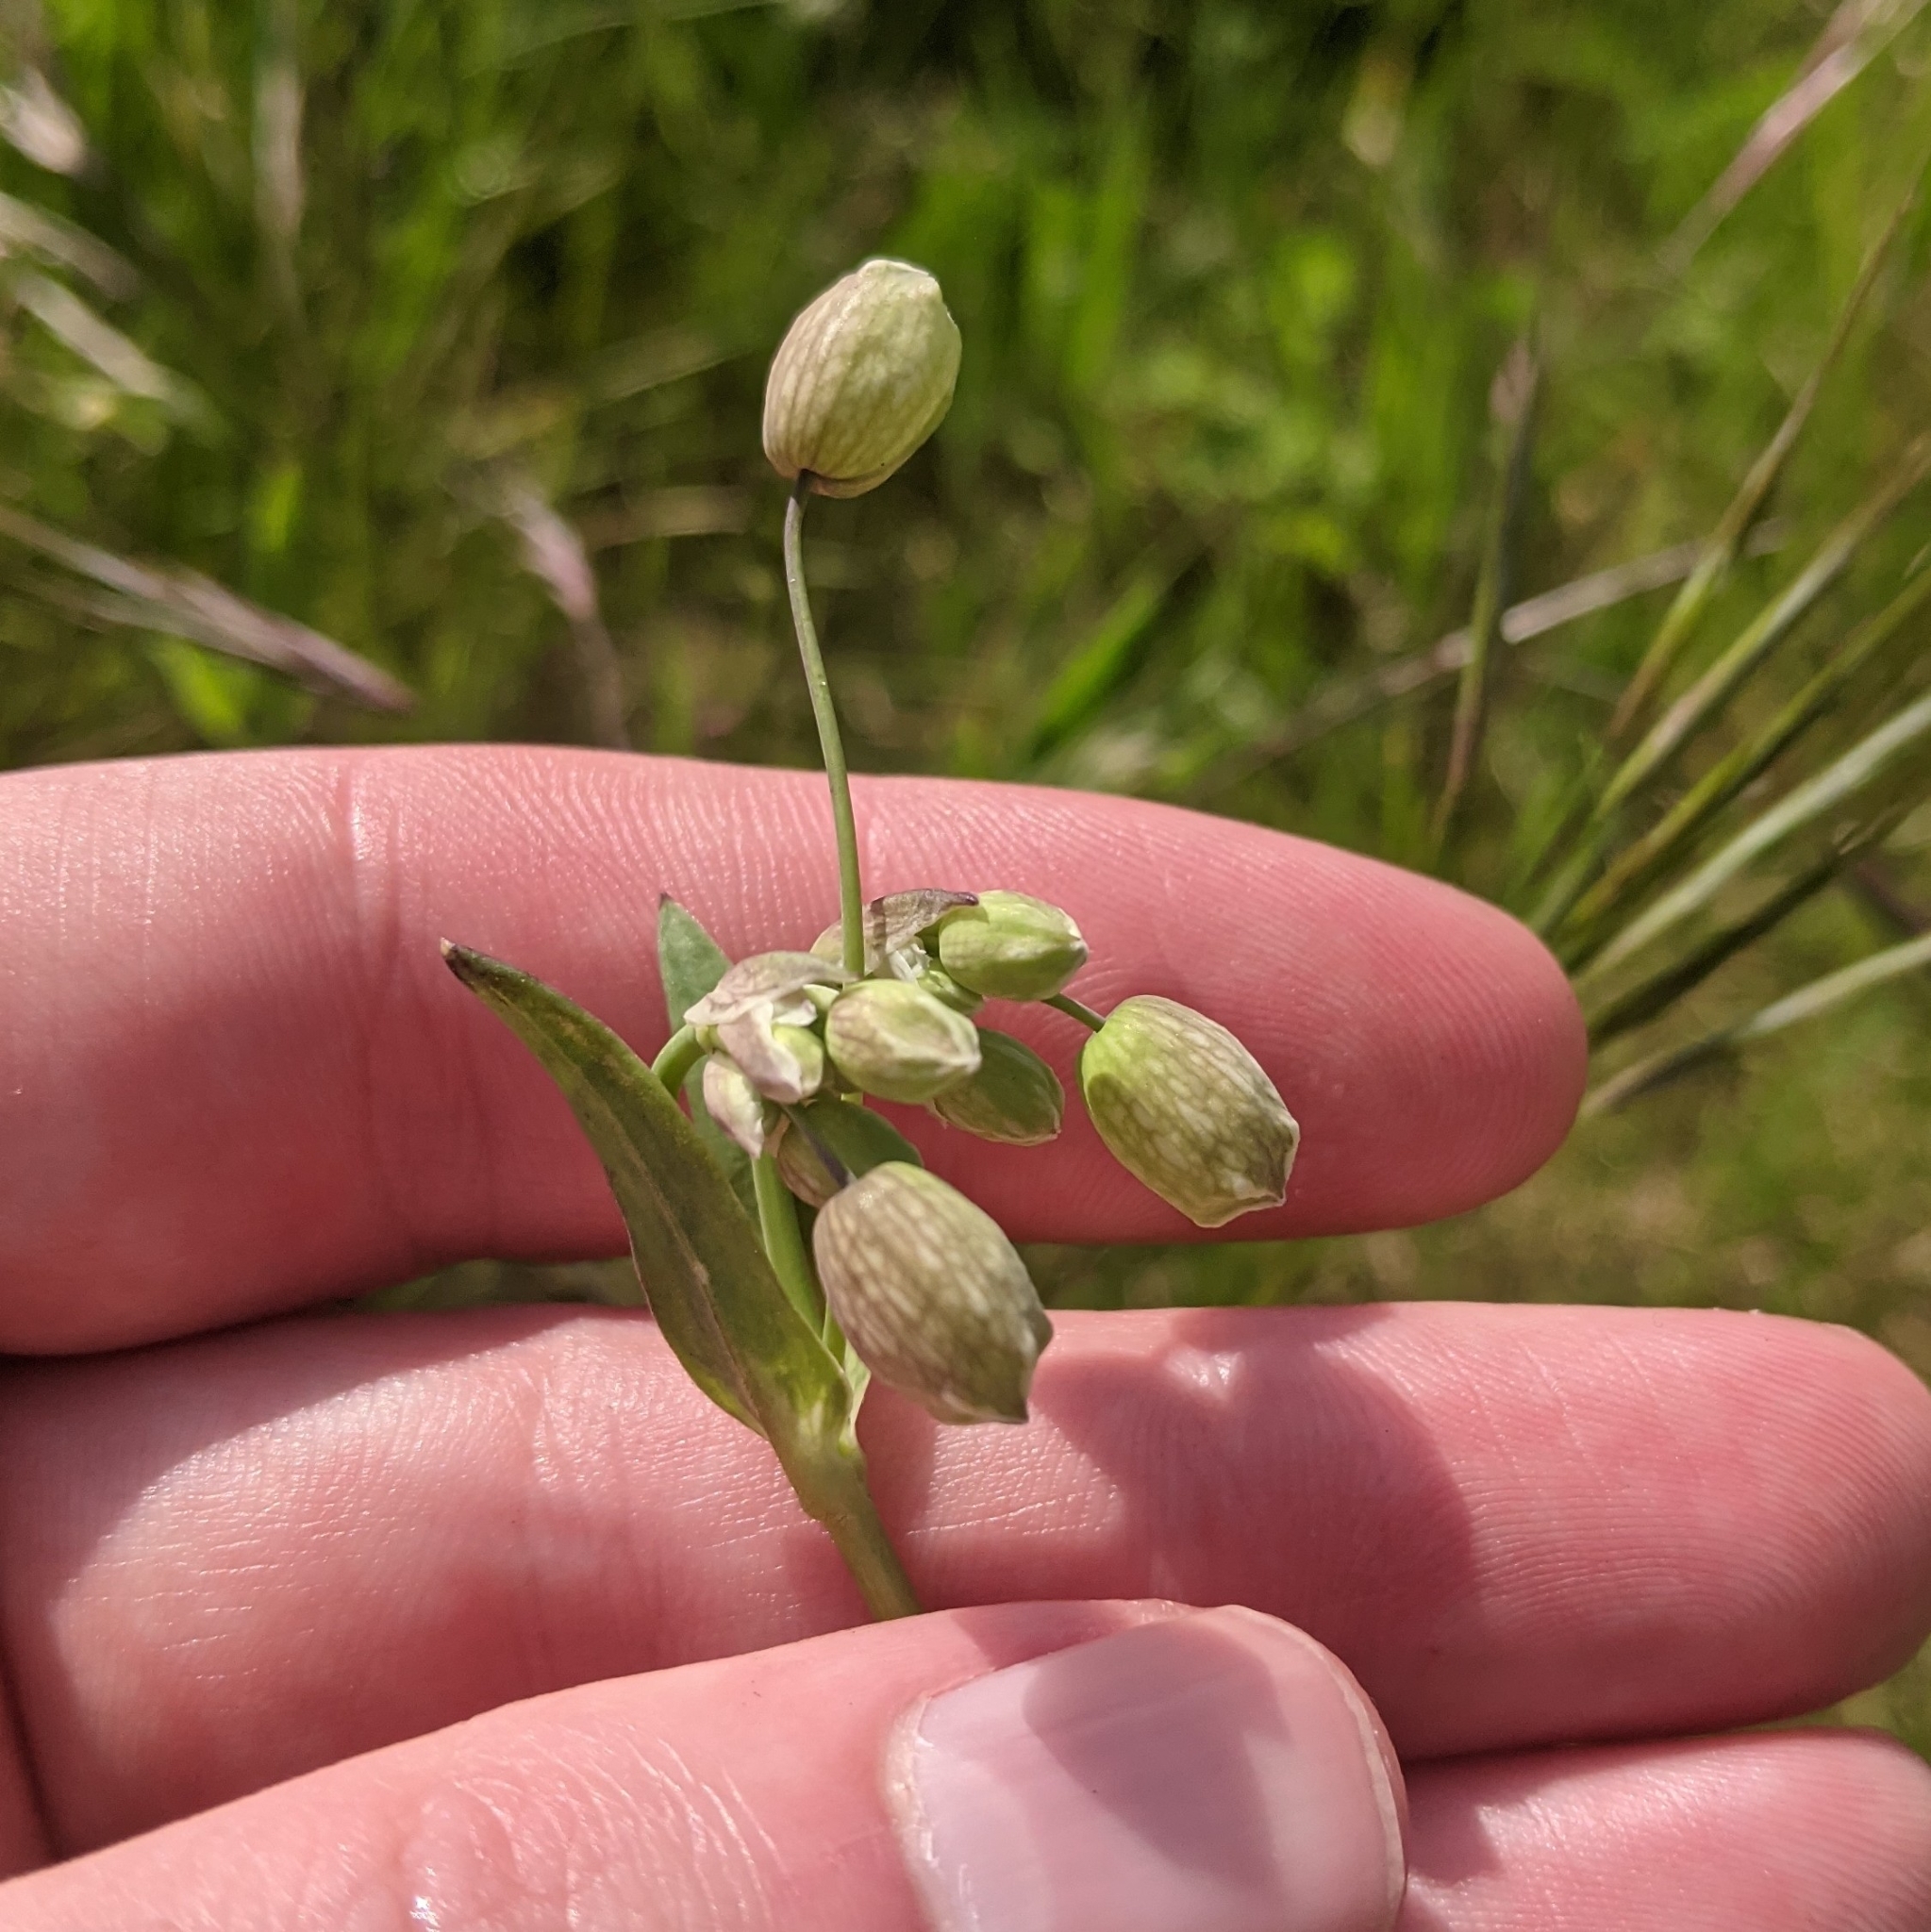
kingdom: Plantae
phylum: Tracheophyta
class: Magnoliopsida
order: Caryophyllales
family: Caryophyllaceae
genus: Silene
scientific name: Silene vulgaris
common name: Bladder campion
